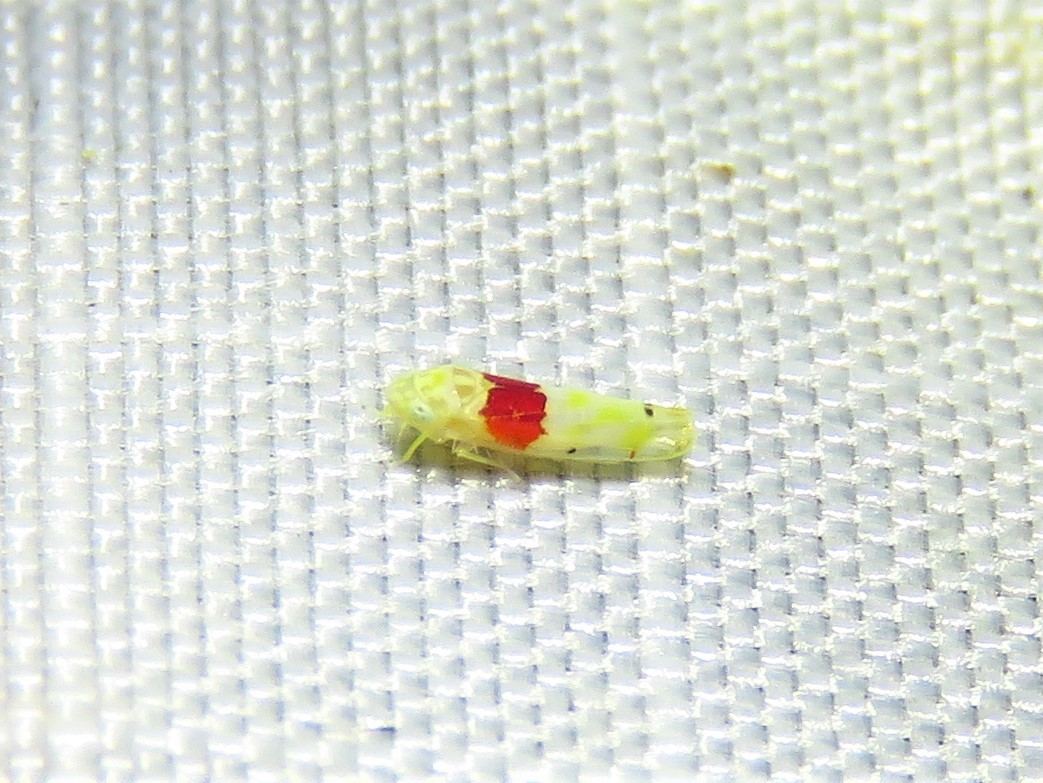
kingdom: Animalia
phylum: Arthropoda
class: Insecta
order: Hemiptera
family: Cicadellidae
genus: Eratoneura
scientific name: Eratoneura osborni
